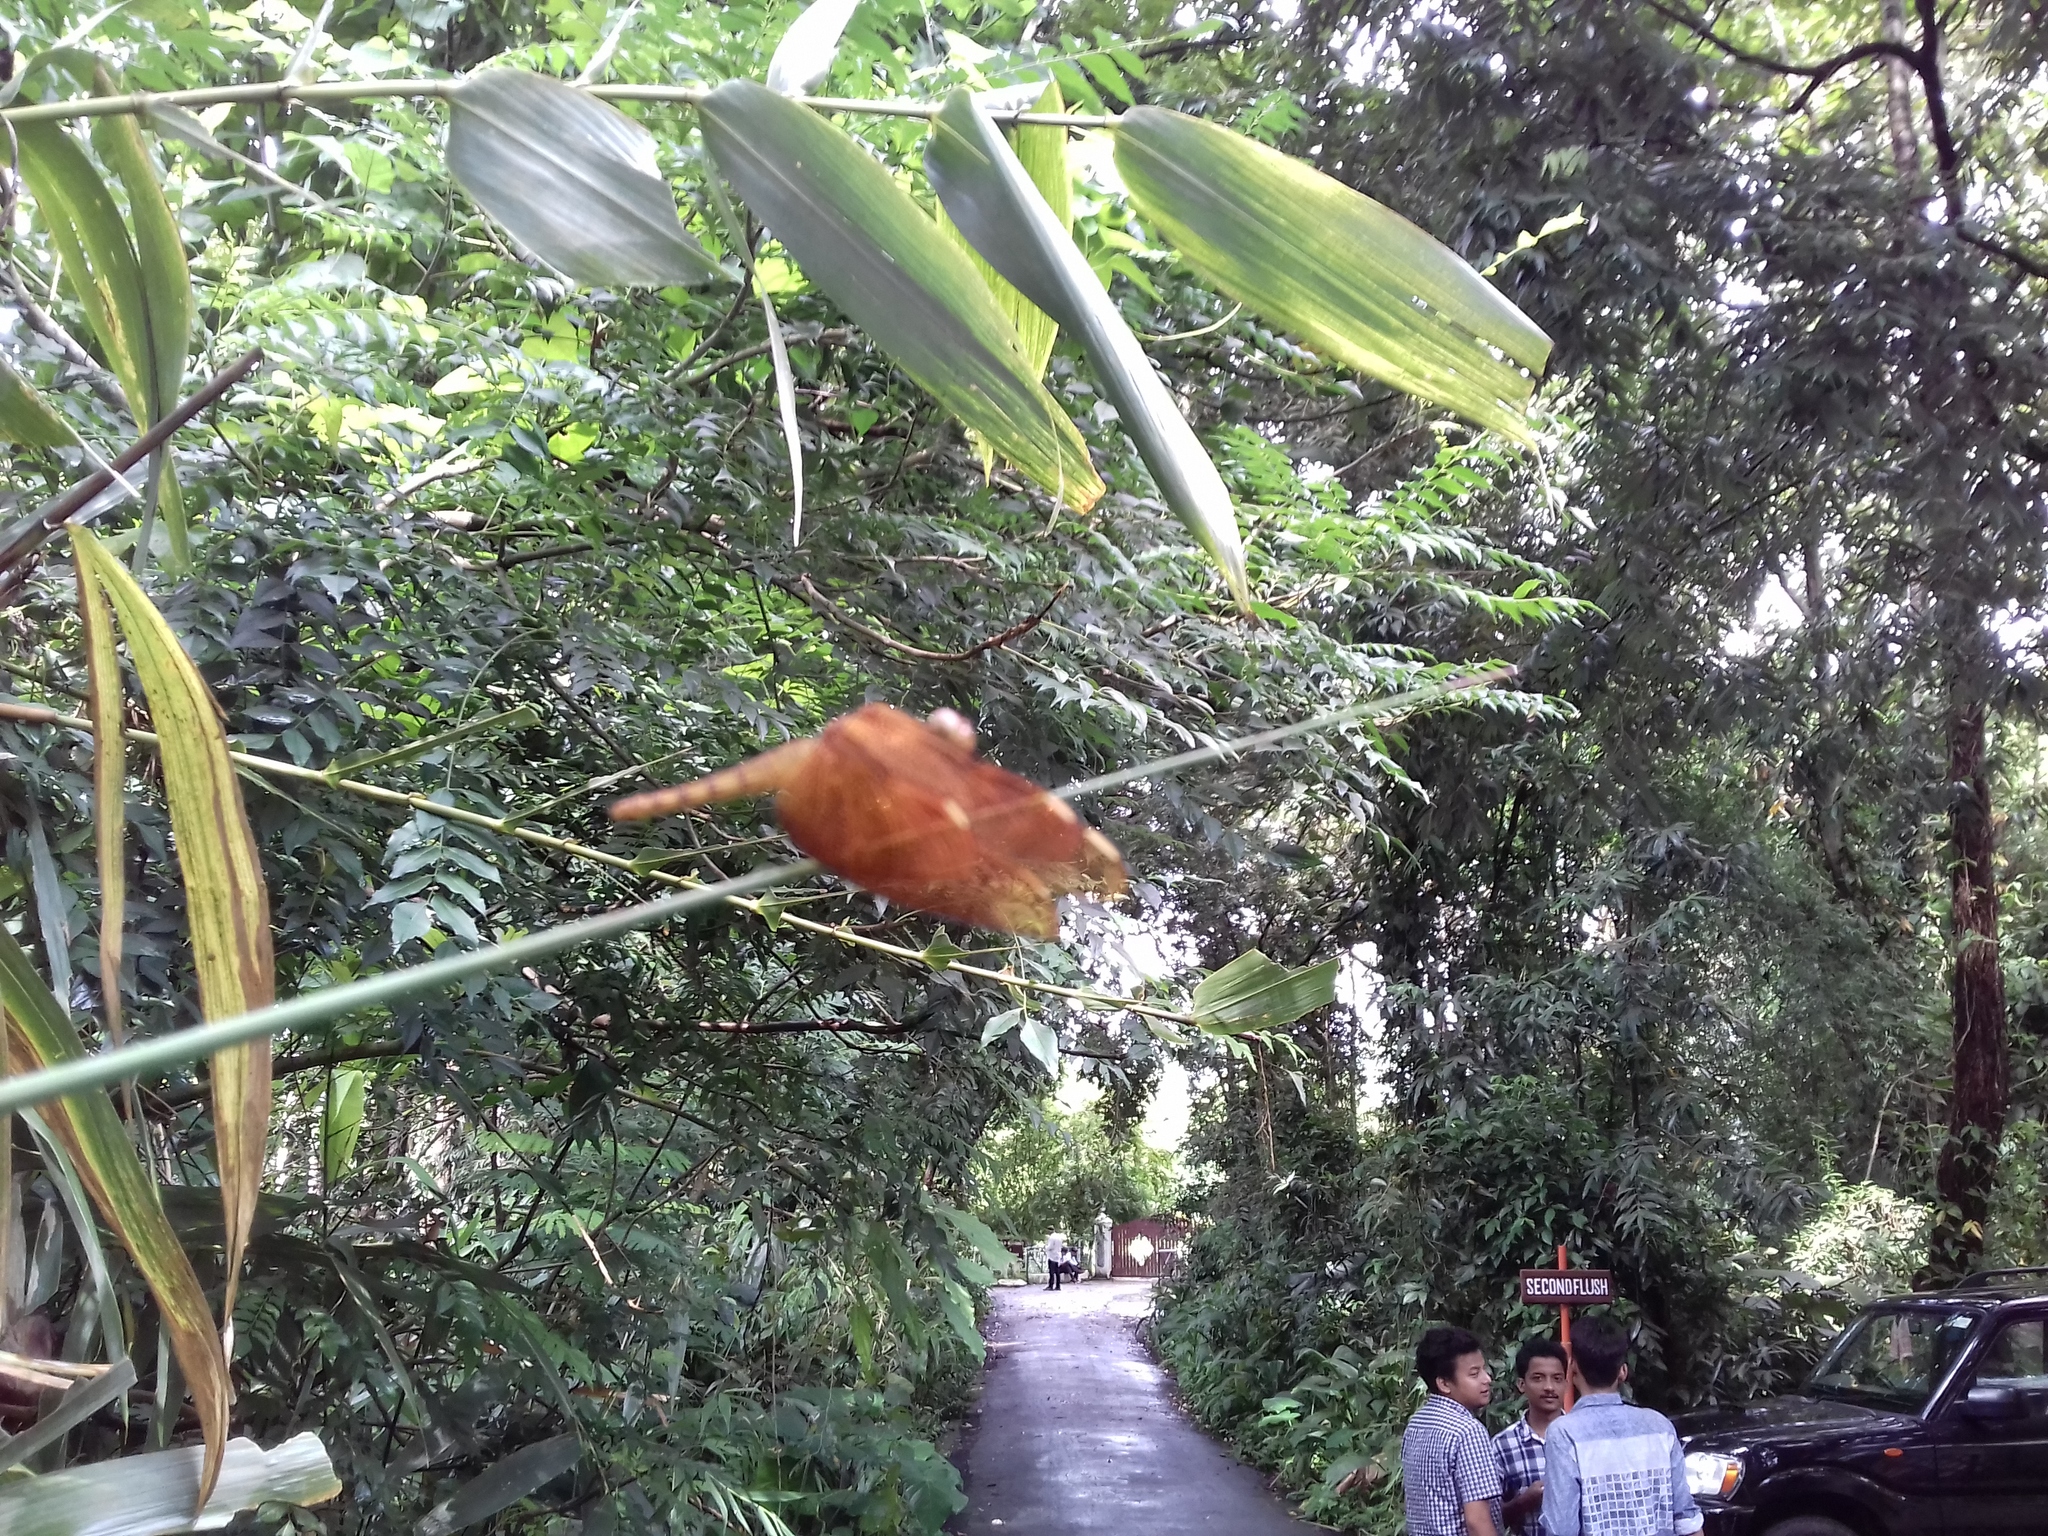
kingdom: Animalia
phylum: Arthropoda
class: Insecta
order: Odonata
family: Libellulidae
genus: Neurothemis
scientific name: Neurothemis fulvia
